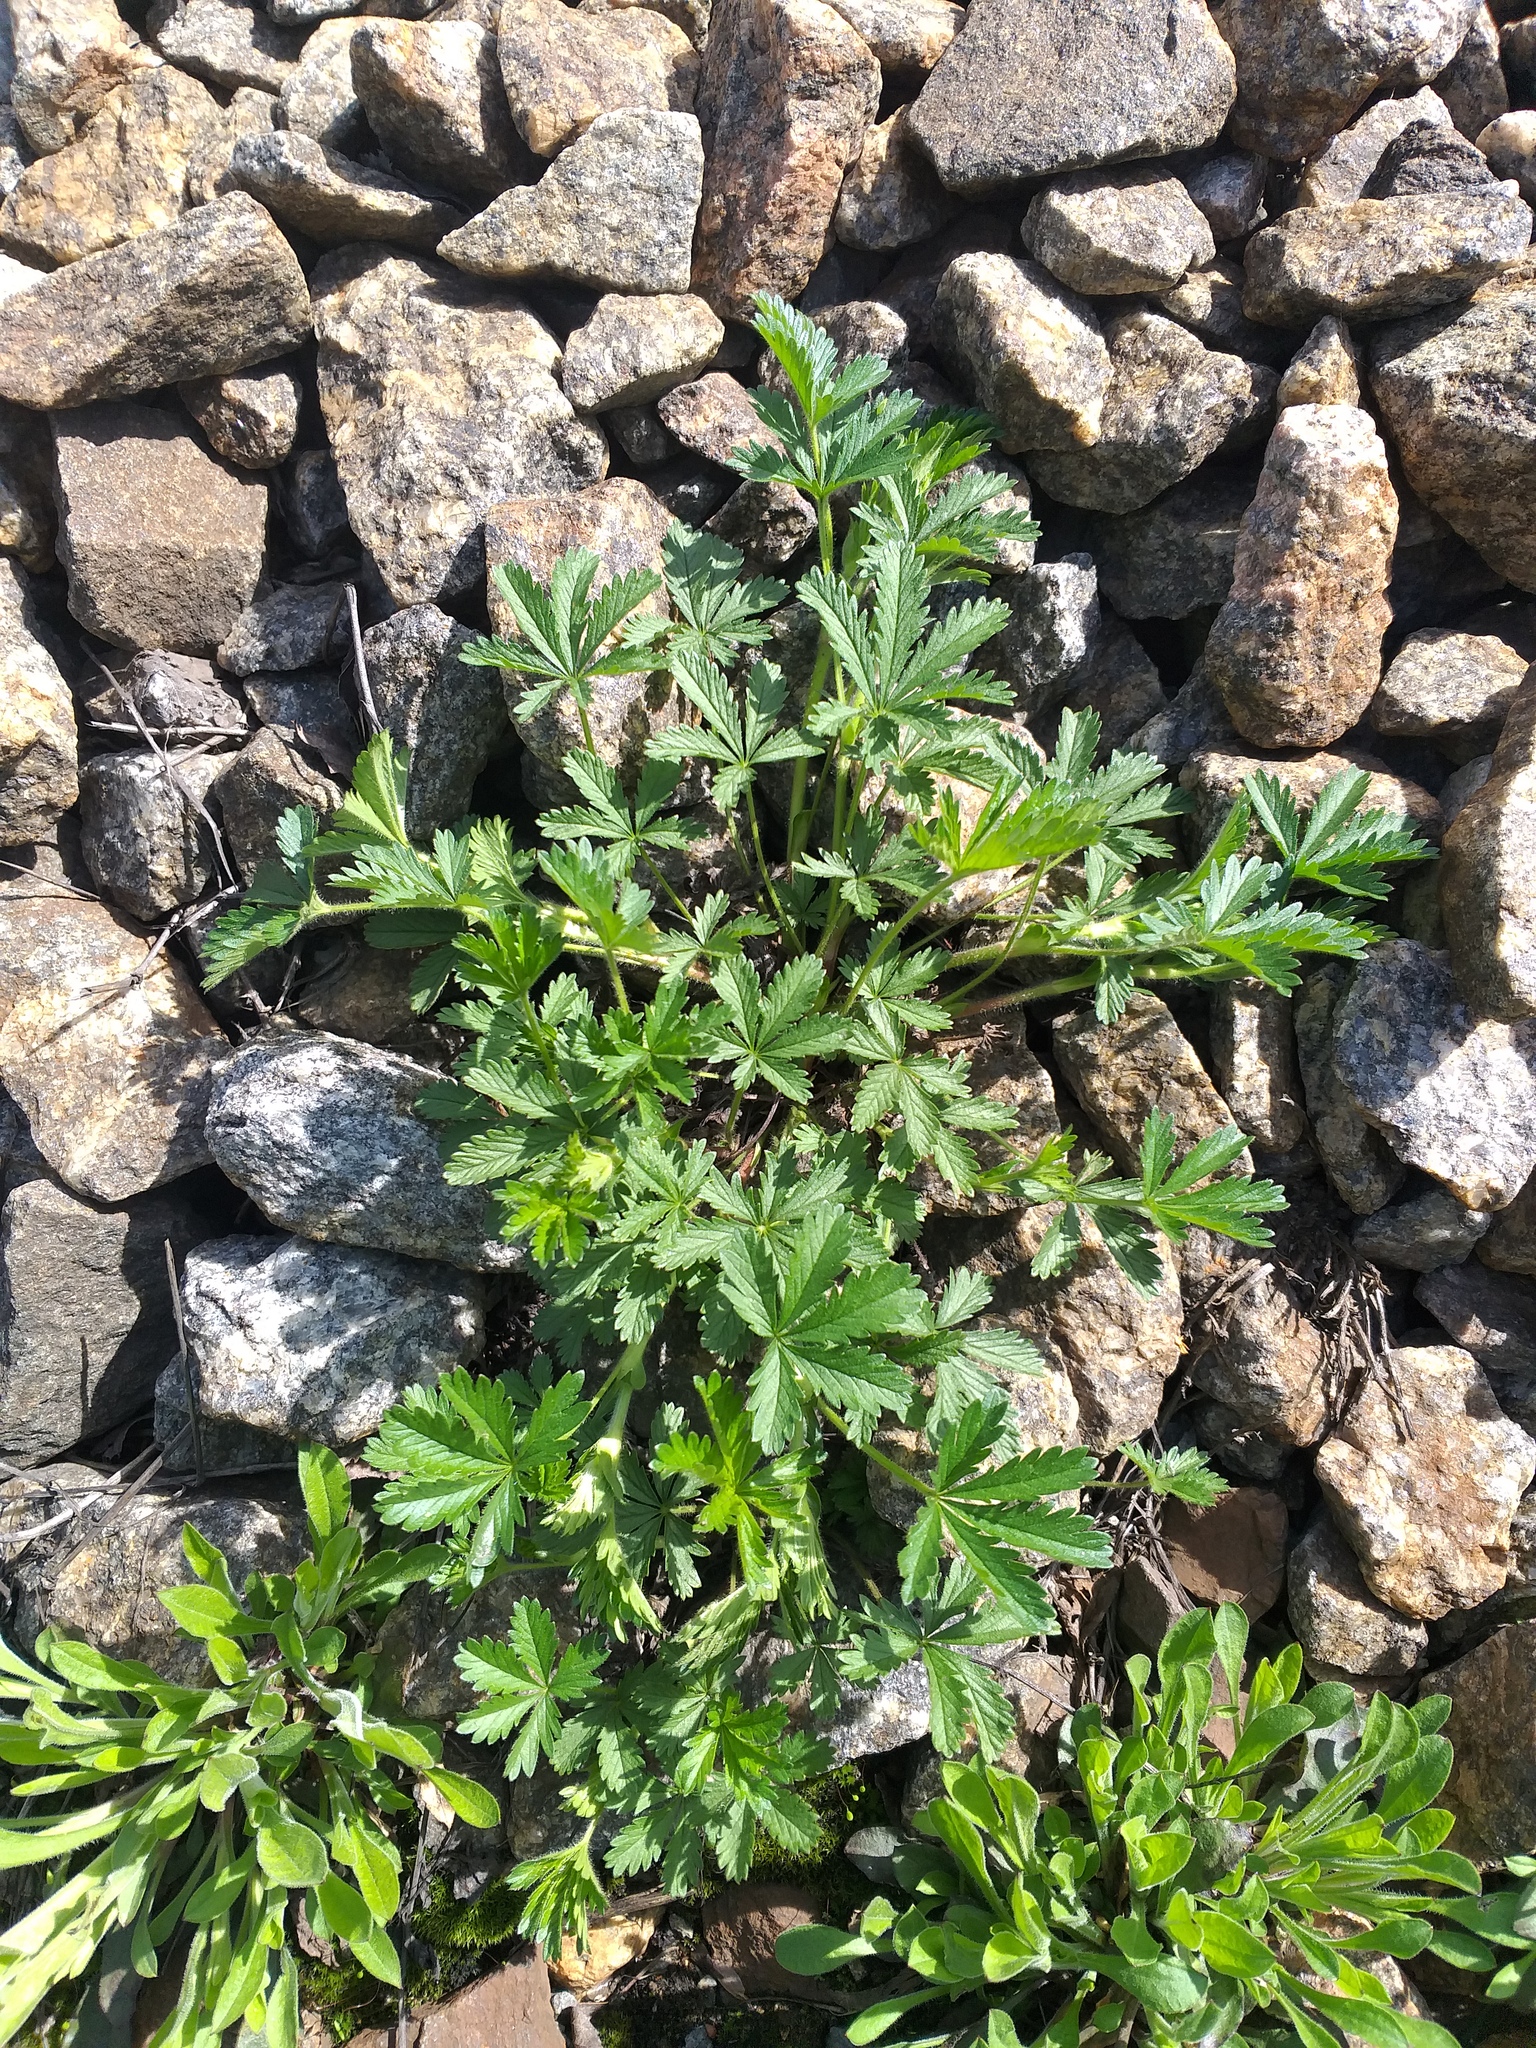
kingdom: Plantae
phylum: Tracheophyta
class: Magnoliopsida
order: Rosales
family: Rosaceae
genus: Potentilla
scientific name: Potentilla thuringiaca
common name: European cinquefoil
